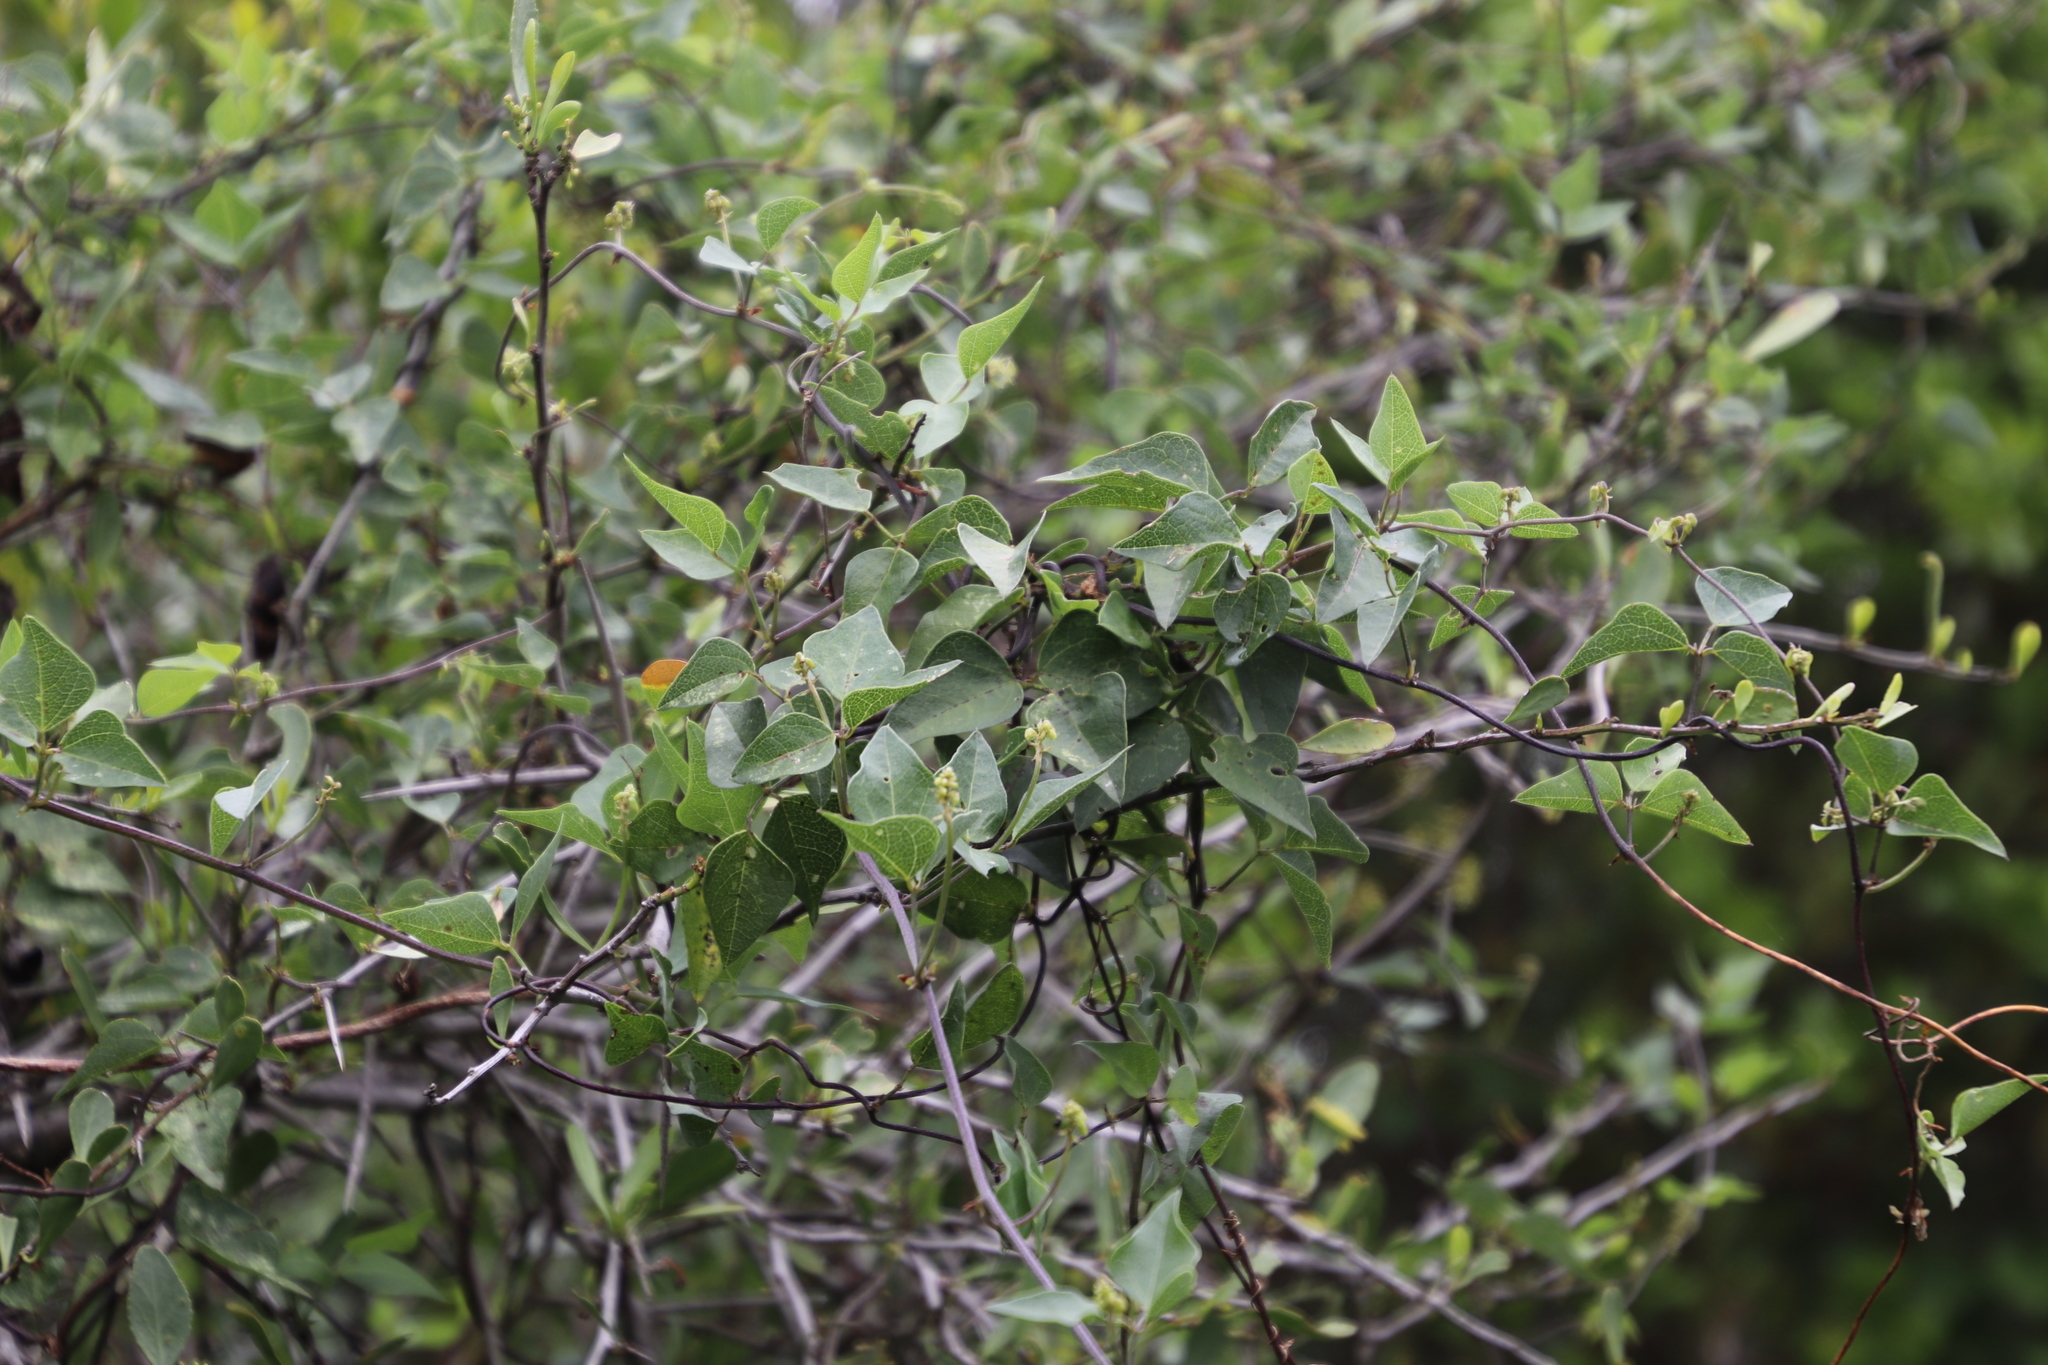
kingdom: Plantae
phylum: Tracheophyta
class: Magnoliopsida
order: Fabales
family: Fabaceae
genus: Dipogon
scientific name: Dipogon lignosus
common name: Okie bean
